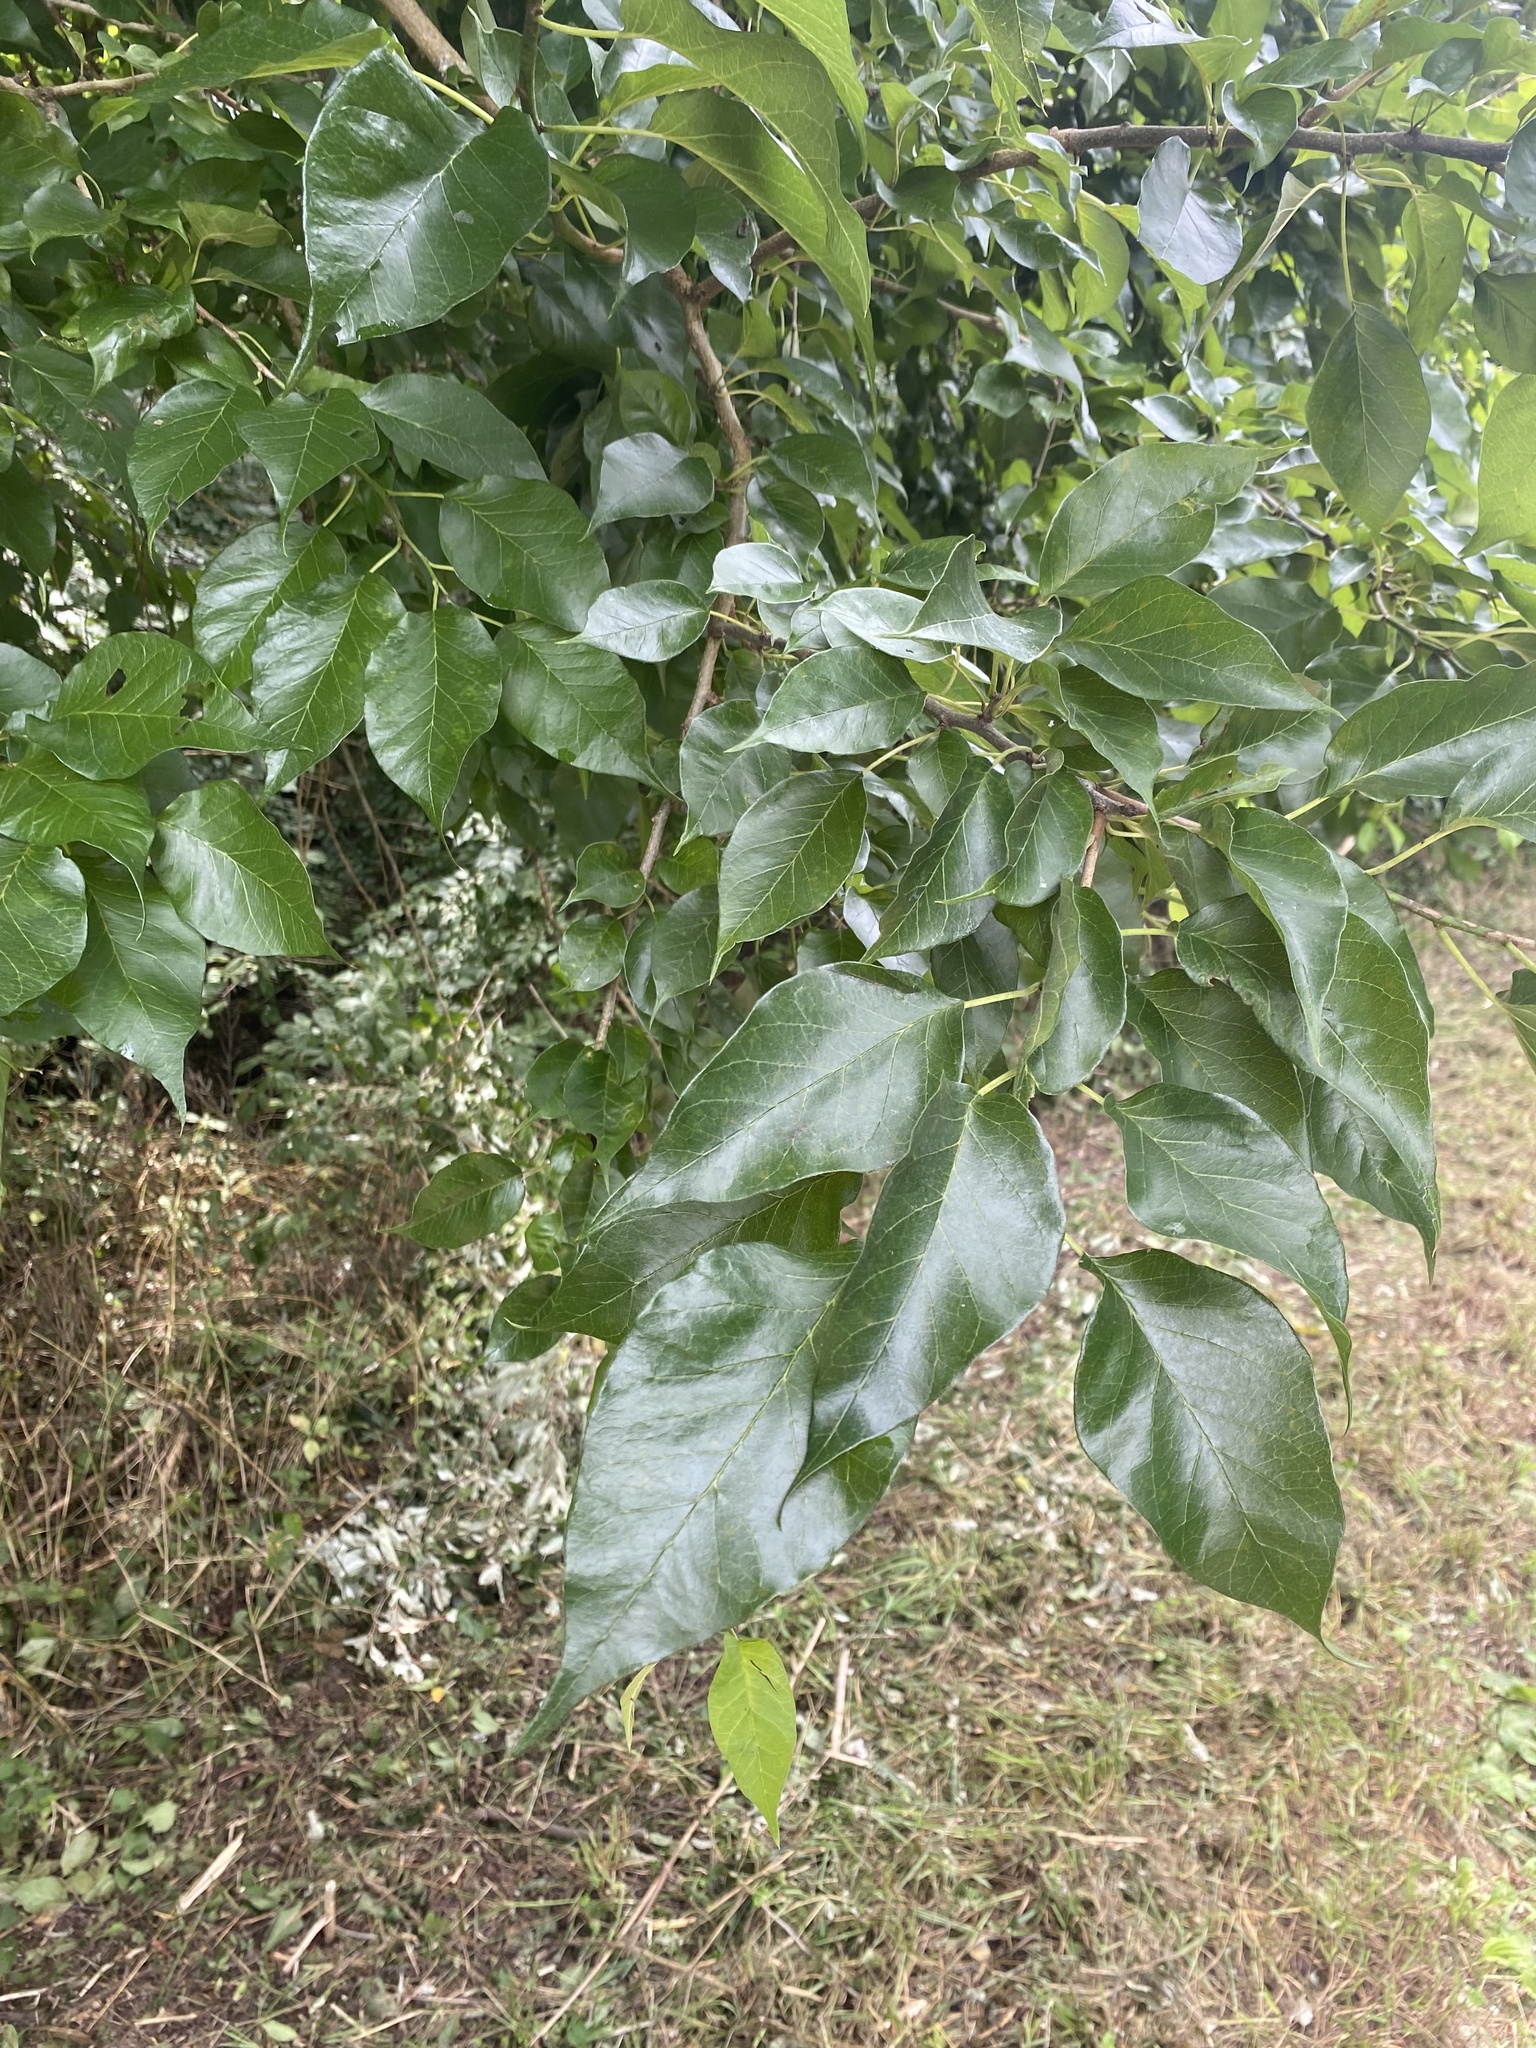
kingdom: Plantae
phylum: Tracheophyta
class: Magnoliopsida
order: Rosales
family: Moraceae
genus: Maclura
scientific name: Maclura pomifera
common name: Osage-orange
